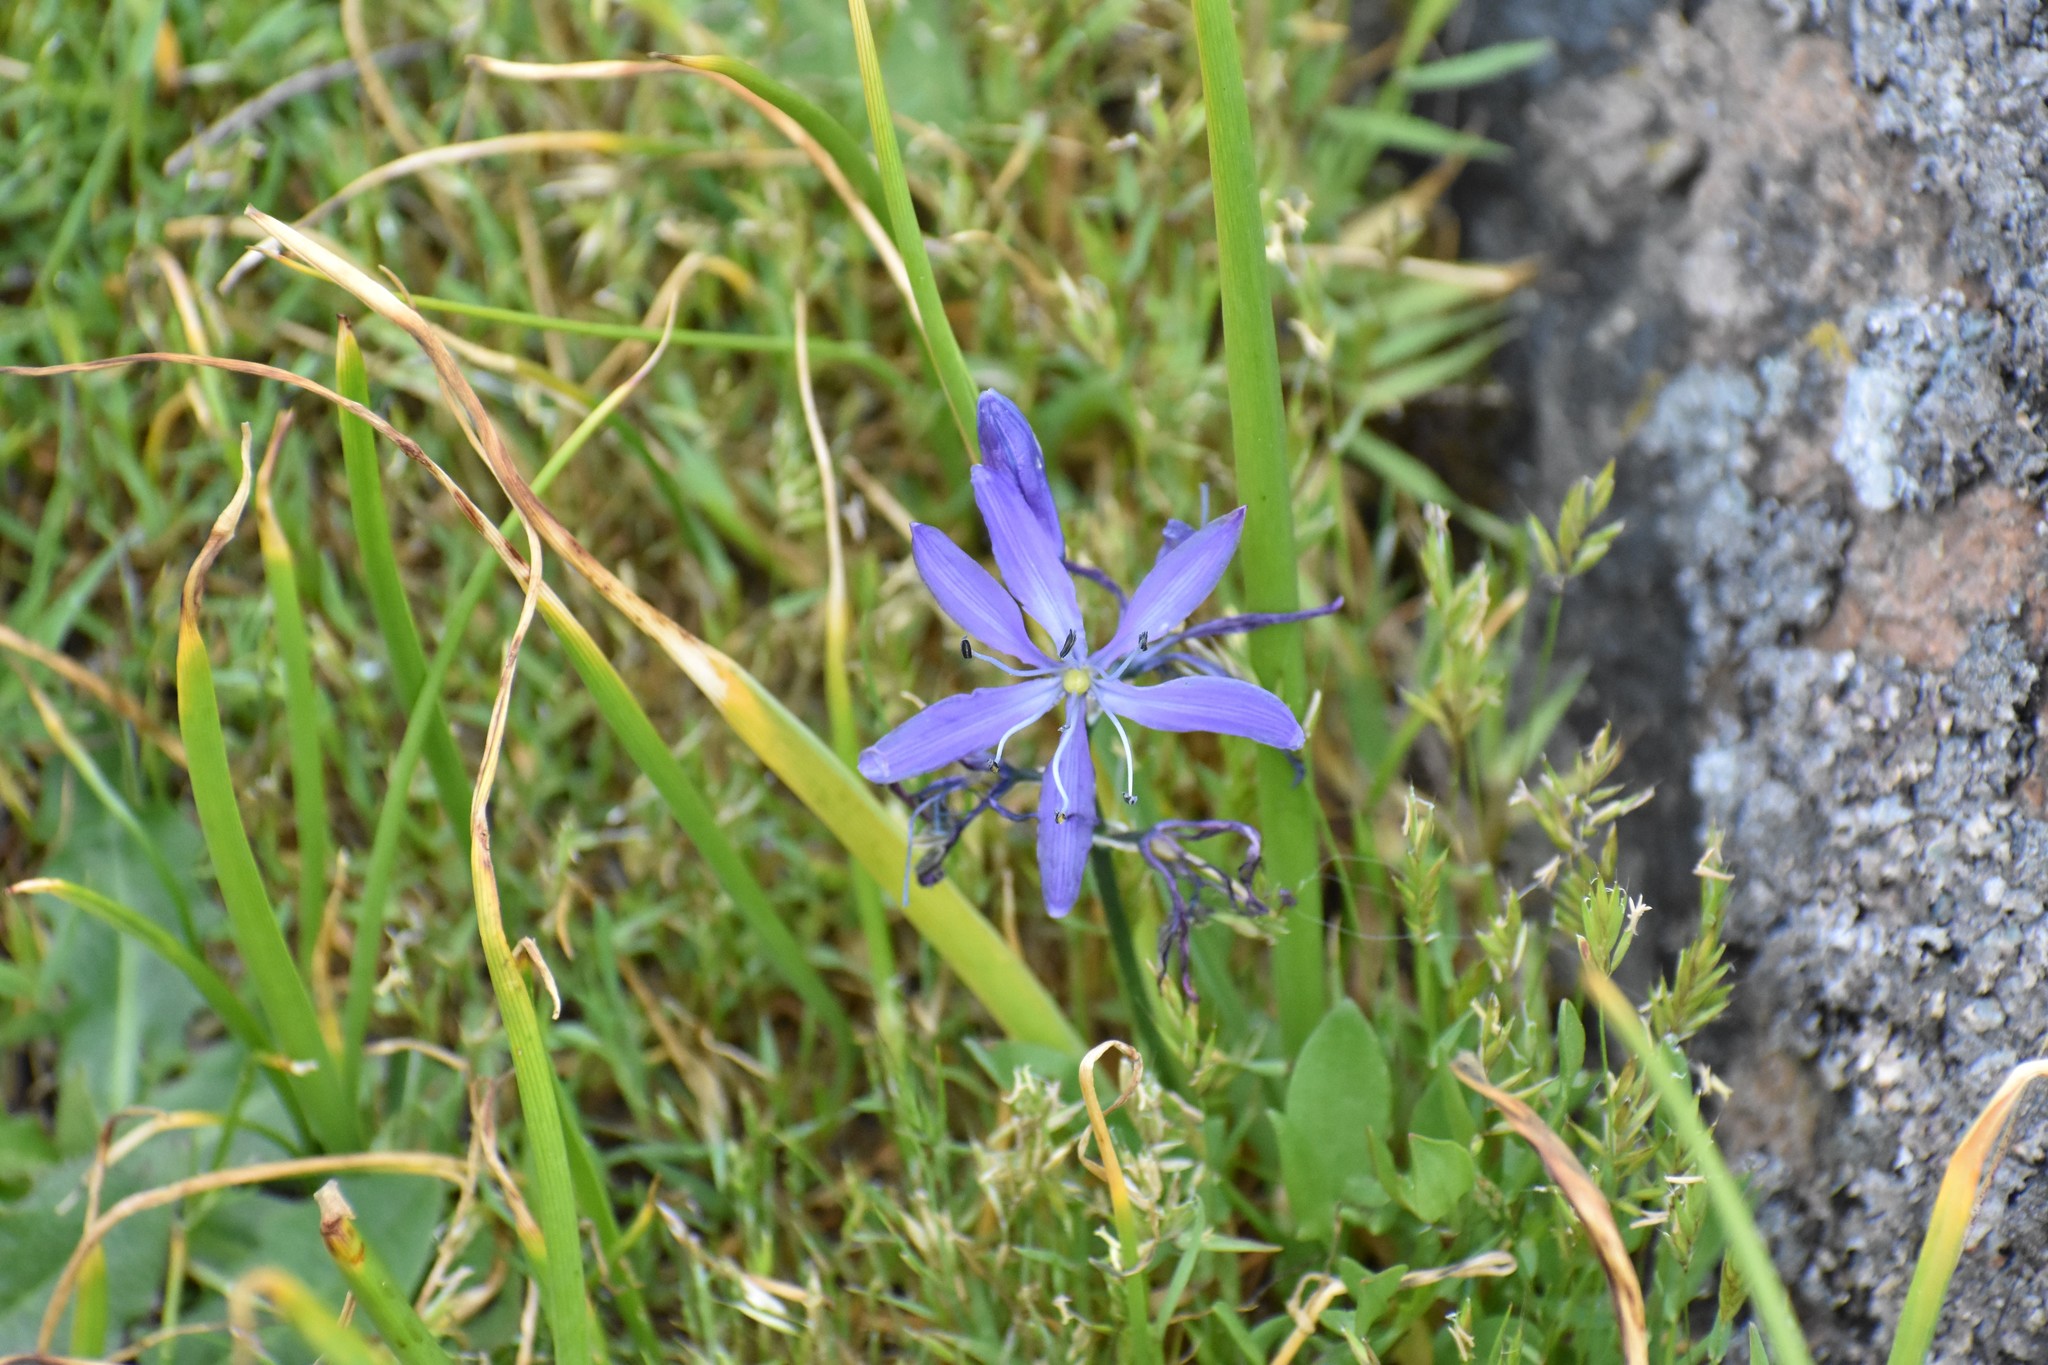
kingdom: Plantae
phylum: Tracheophyta
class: Liliopsida
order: Asparagales
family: Asparagaceae
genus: Camassia
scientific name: Camassia quamash
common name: Common camas
